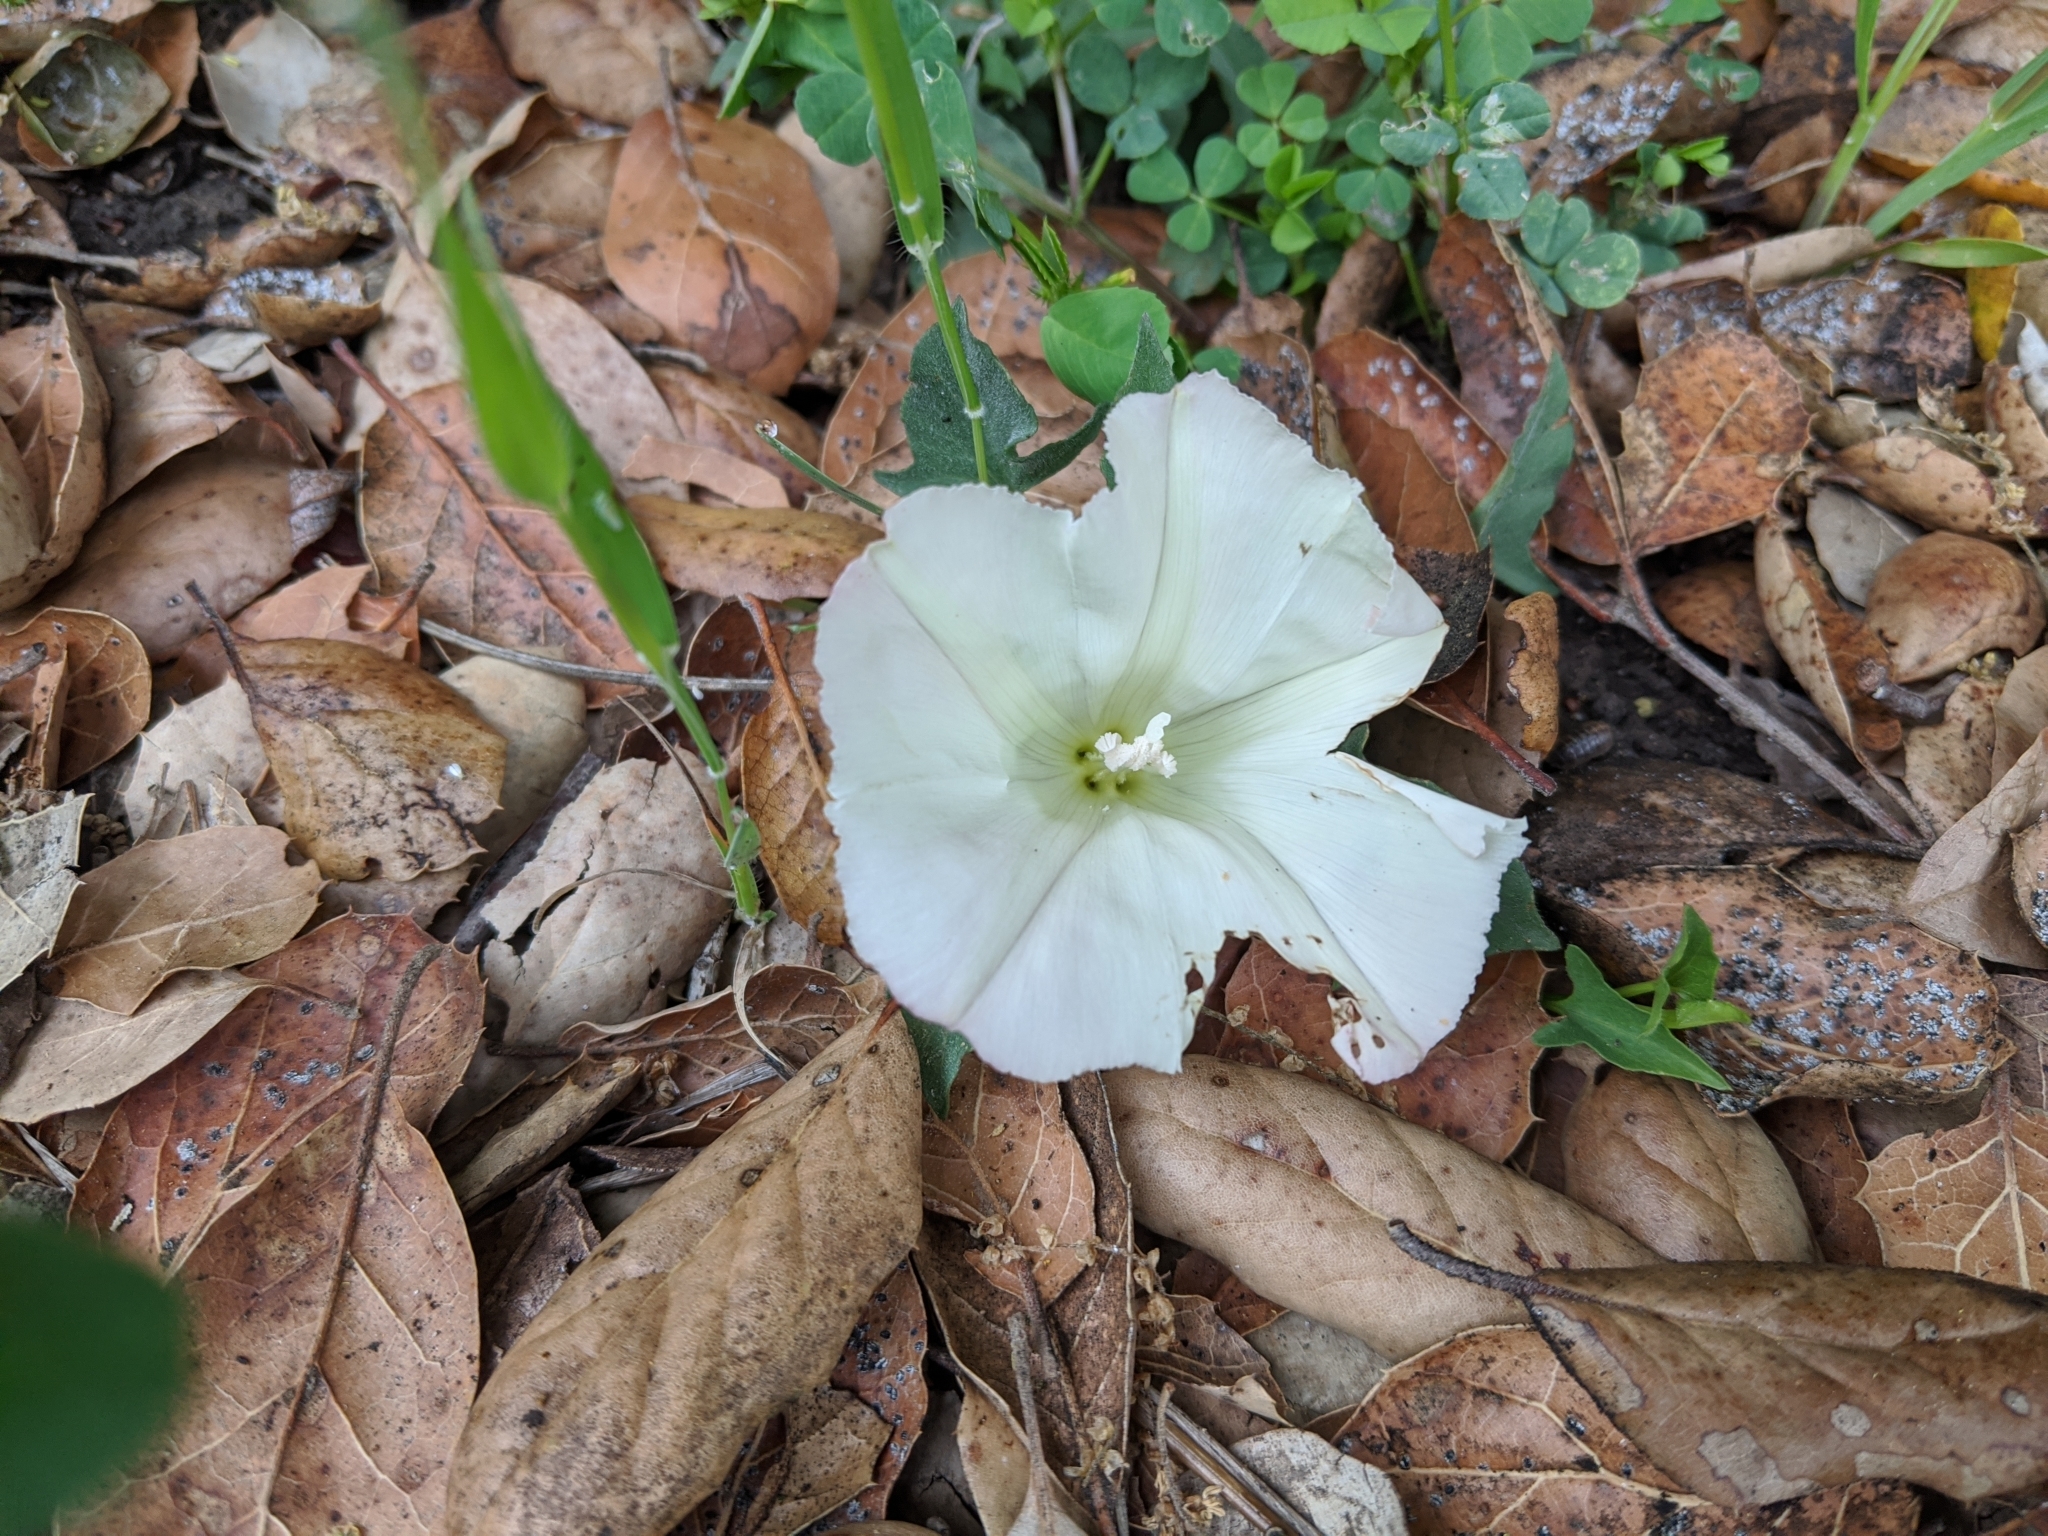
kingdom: Plantae
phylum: Tracheophyta
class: Magnoliopsida
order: Solanales
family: Convolvulaceae
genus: Calystegia
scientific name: Calystegia subacaulis
